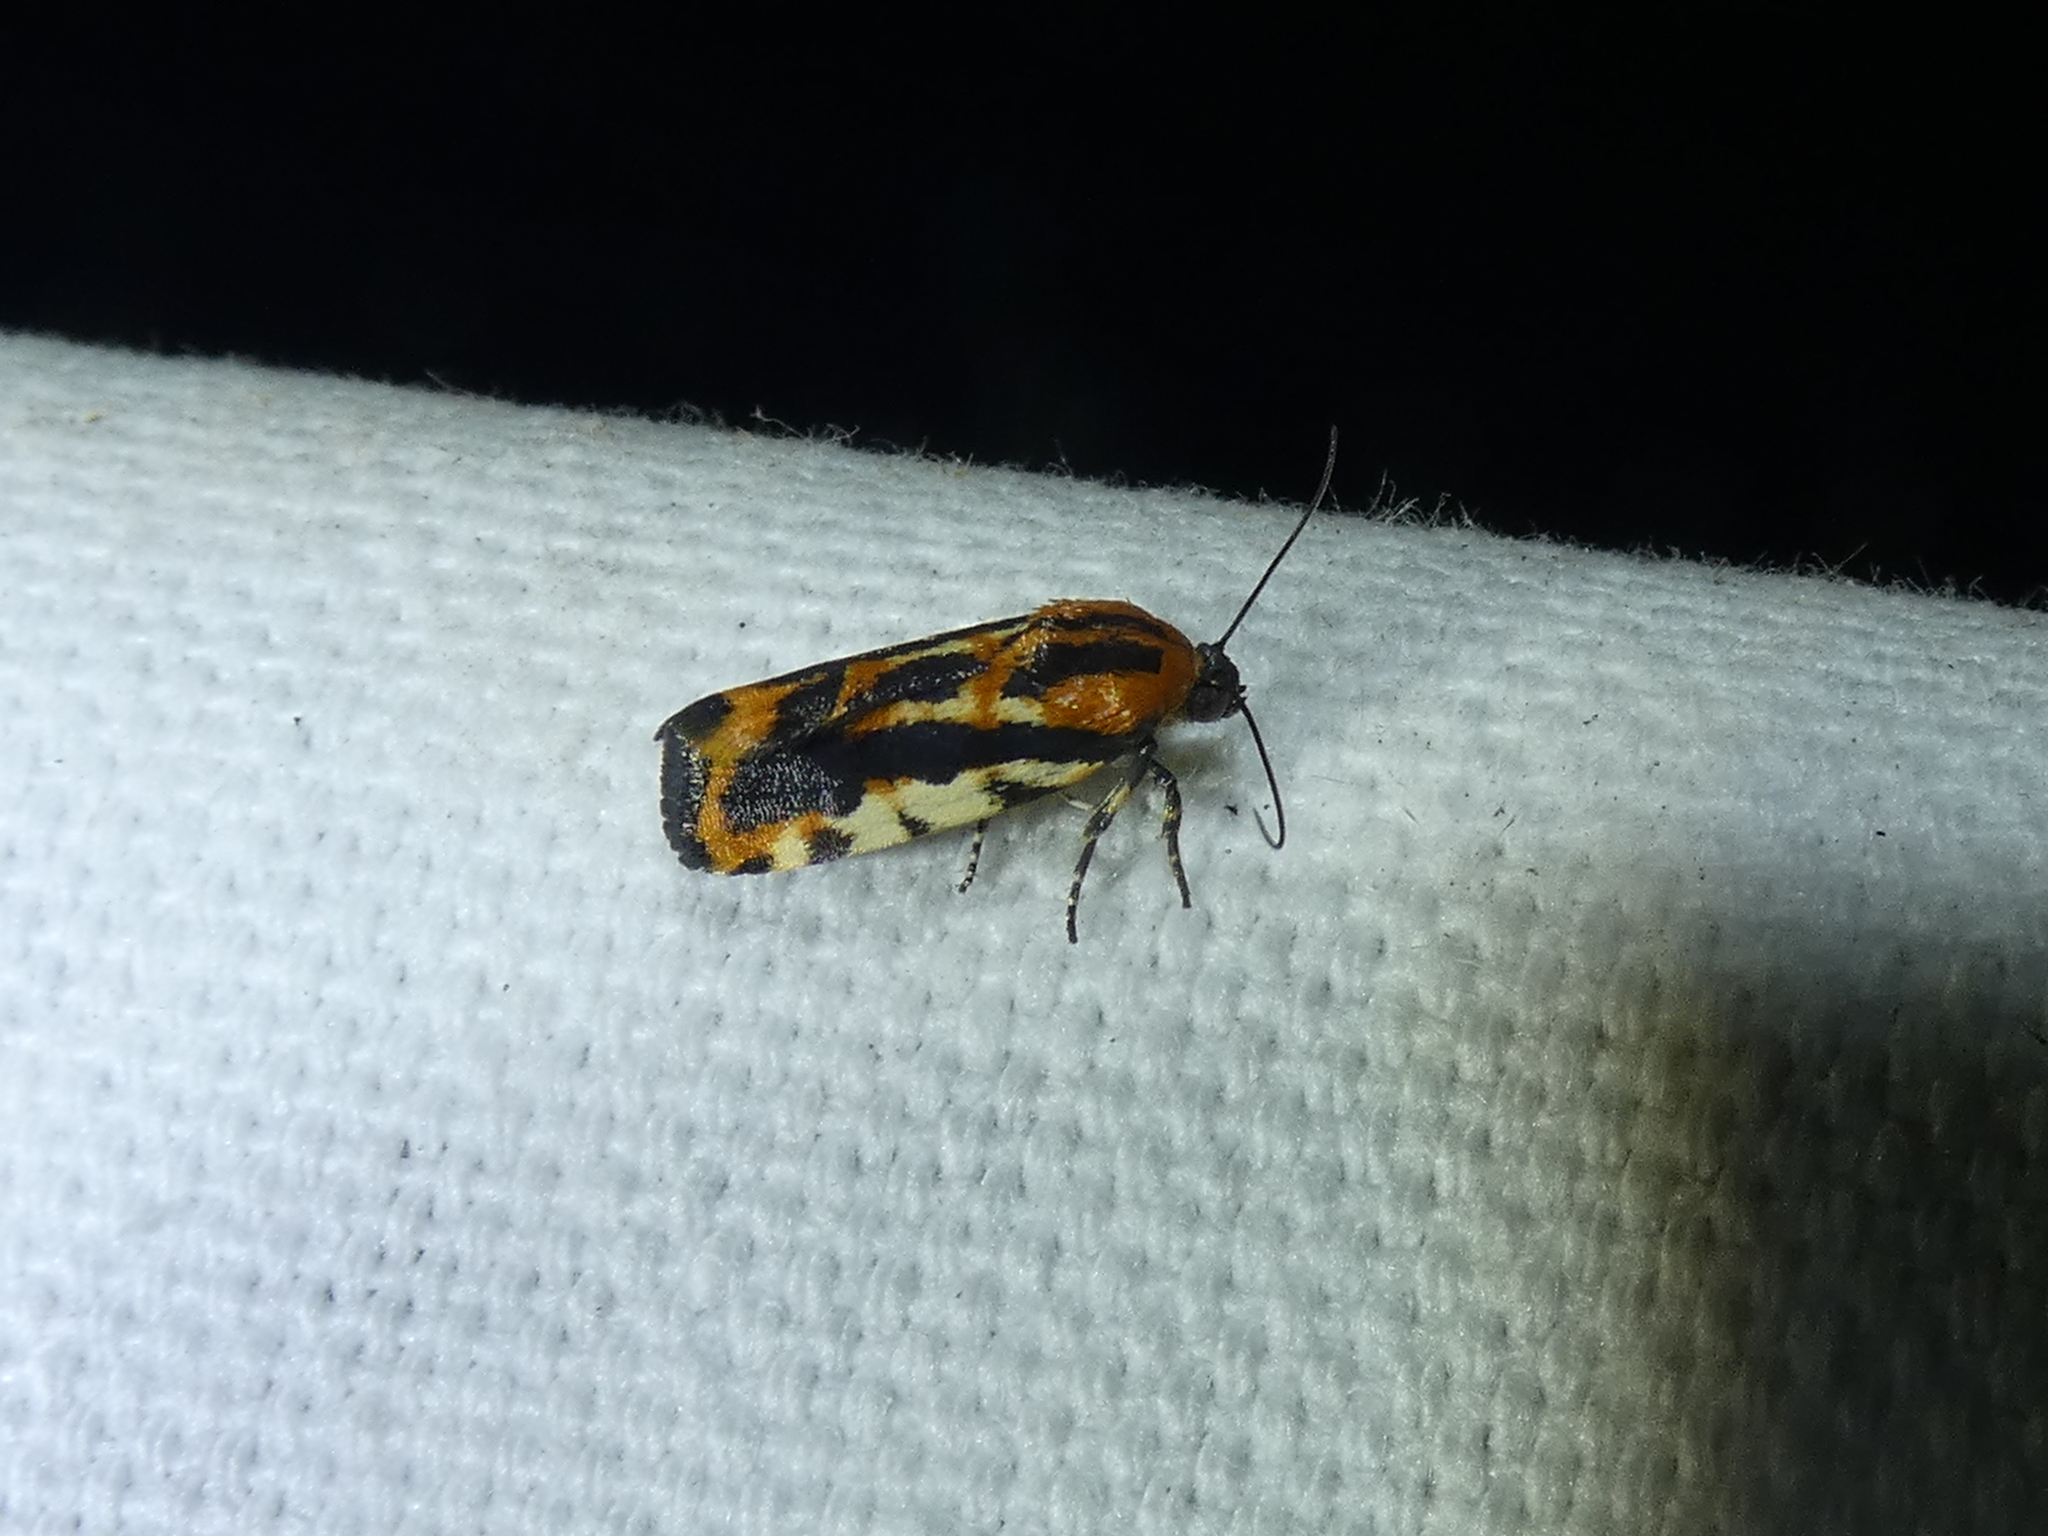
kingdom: Animalia
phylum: Arthropoda
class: Insecta
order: Lepidoptera
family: Noctuidae
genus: Acontia
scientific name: Acontia leo
